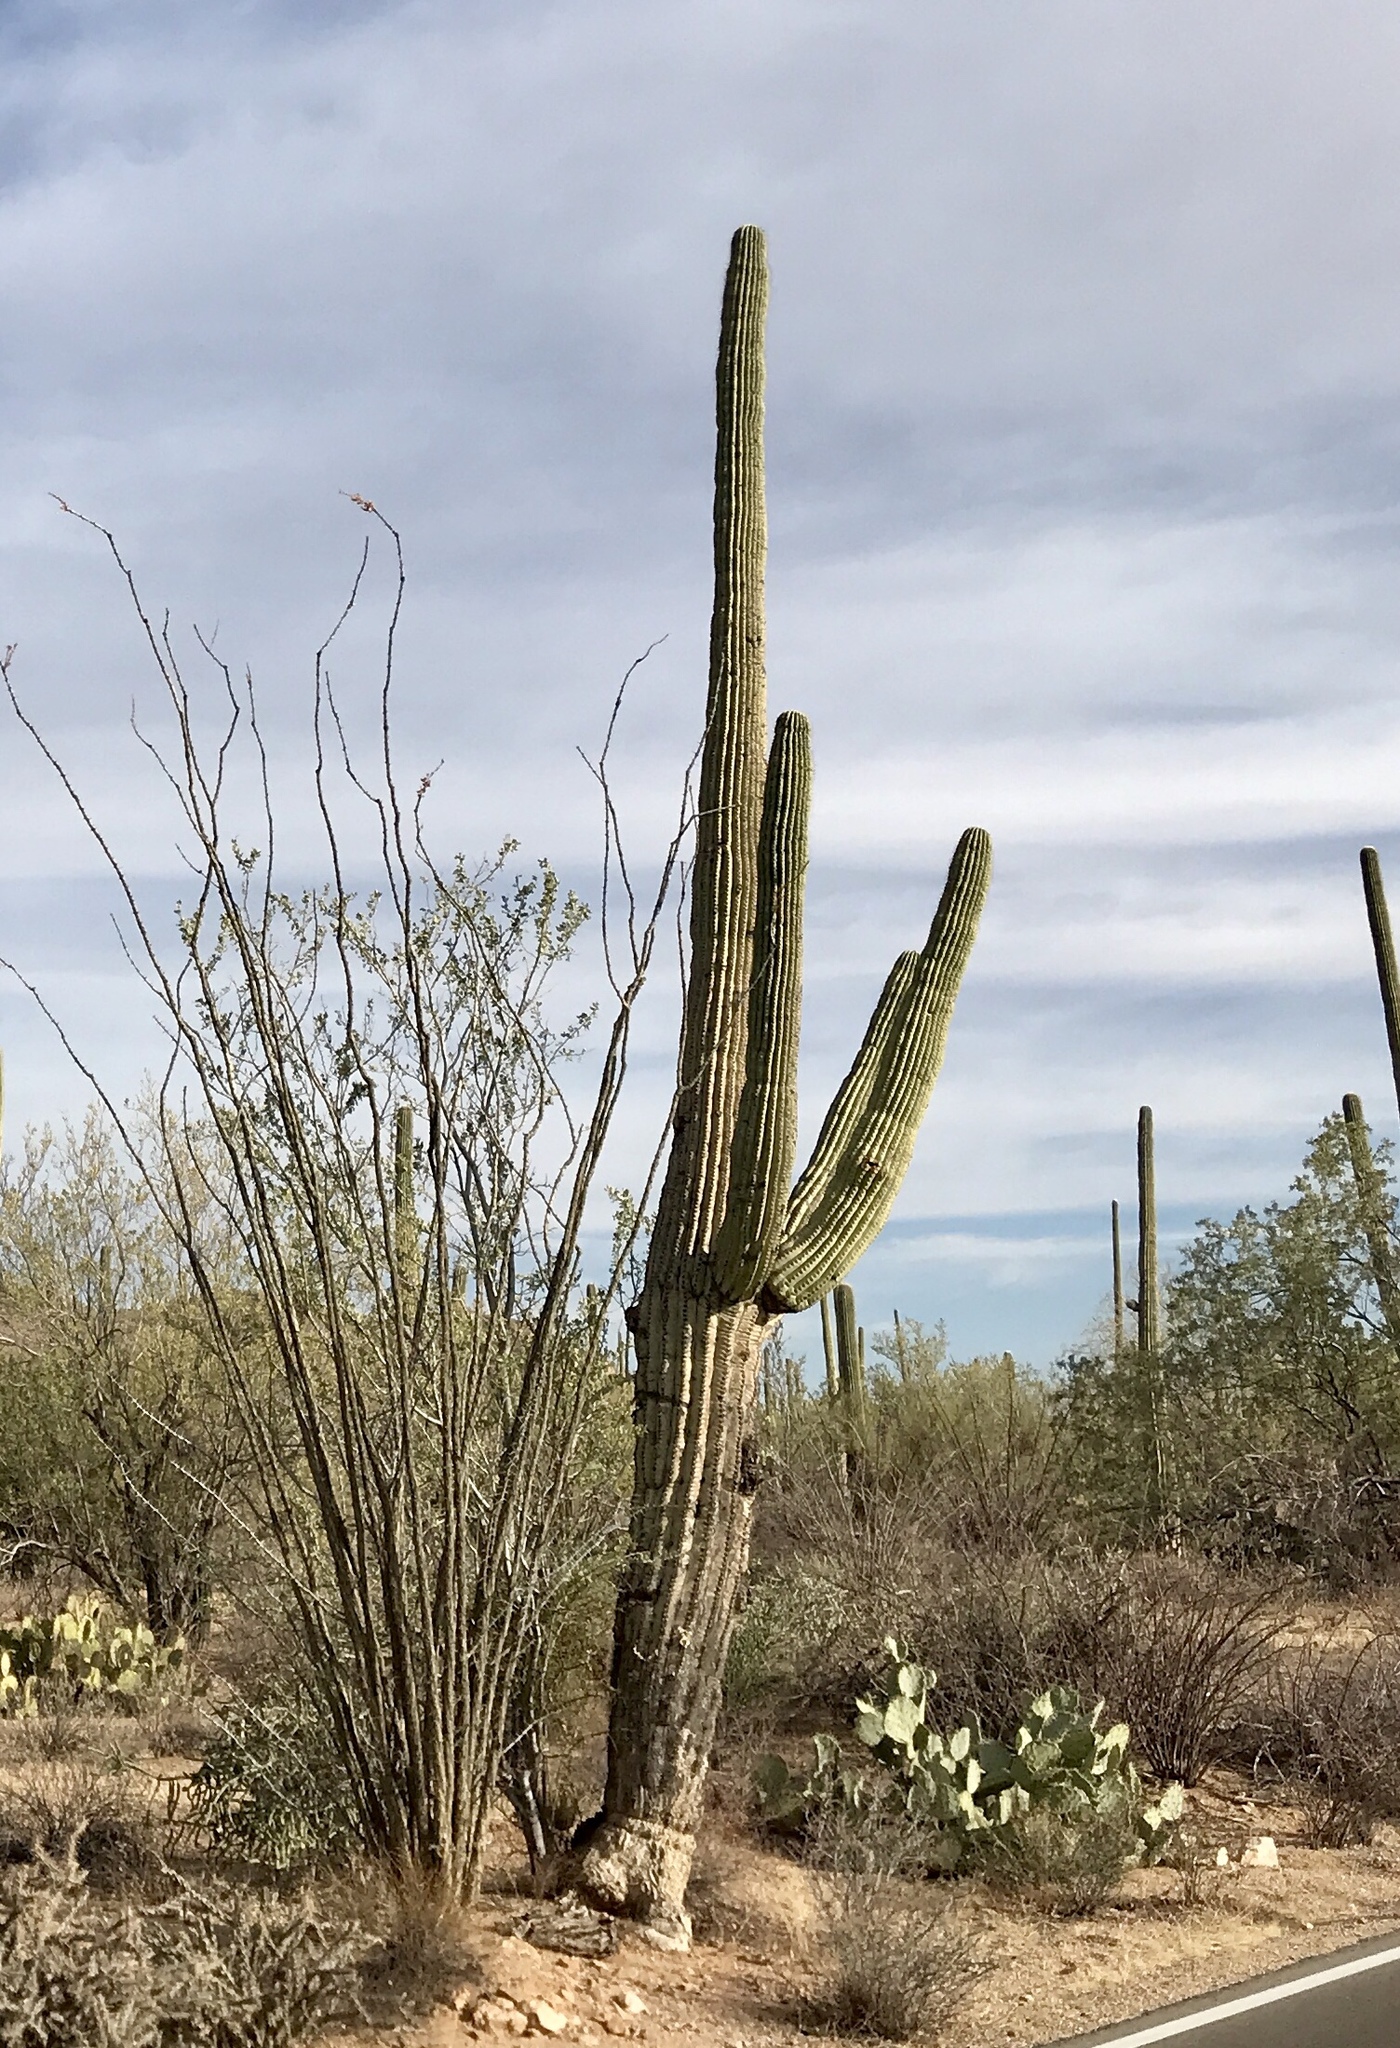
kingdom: Plantae
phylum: Tracheophyta
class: Magnoliopsida
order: Caryophyllales
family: Cactaceae
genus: Carnegiea
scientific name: Carnegiea gigantea
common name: Saguaro
